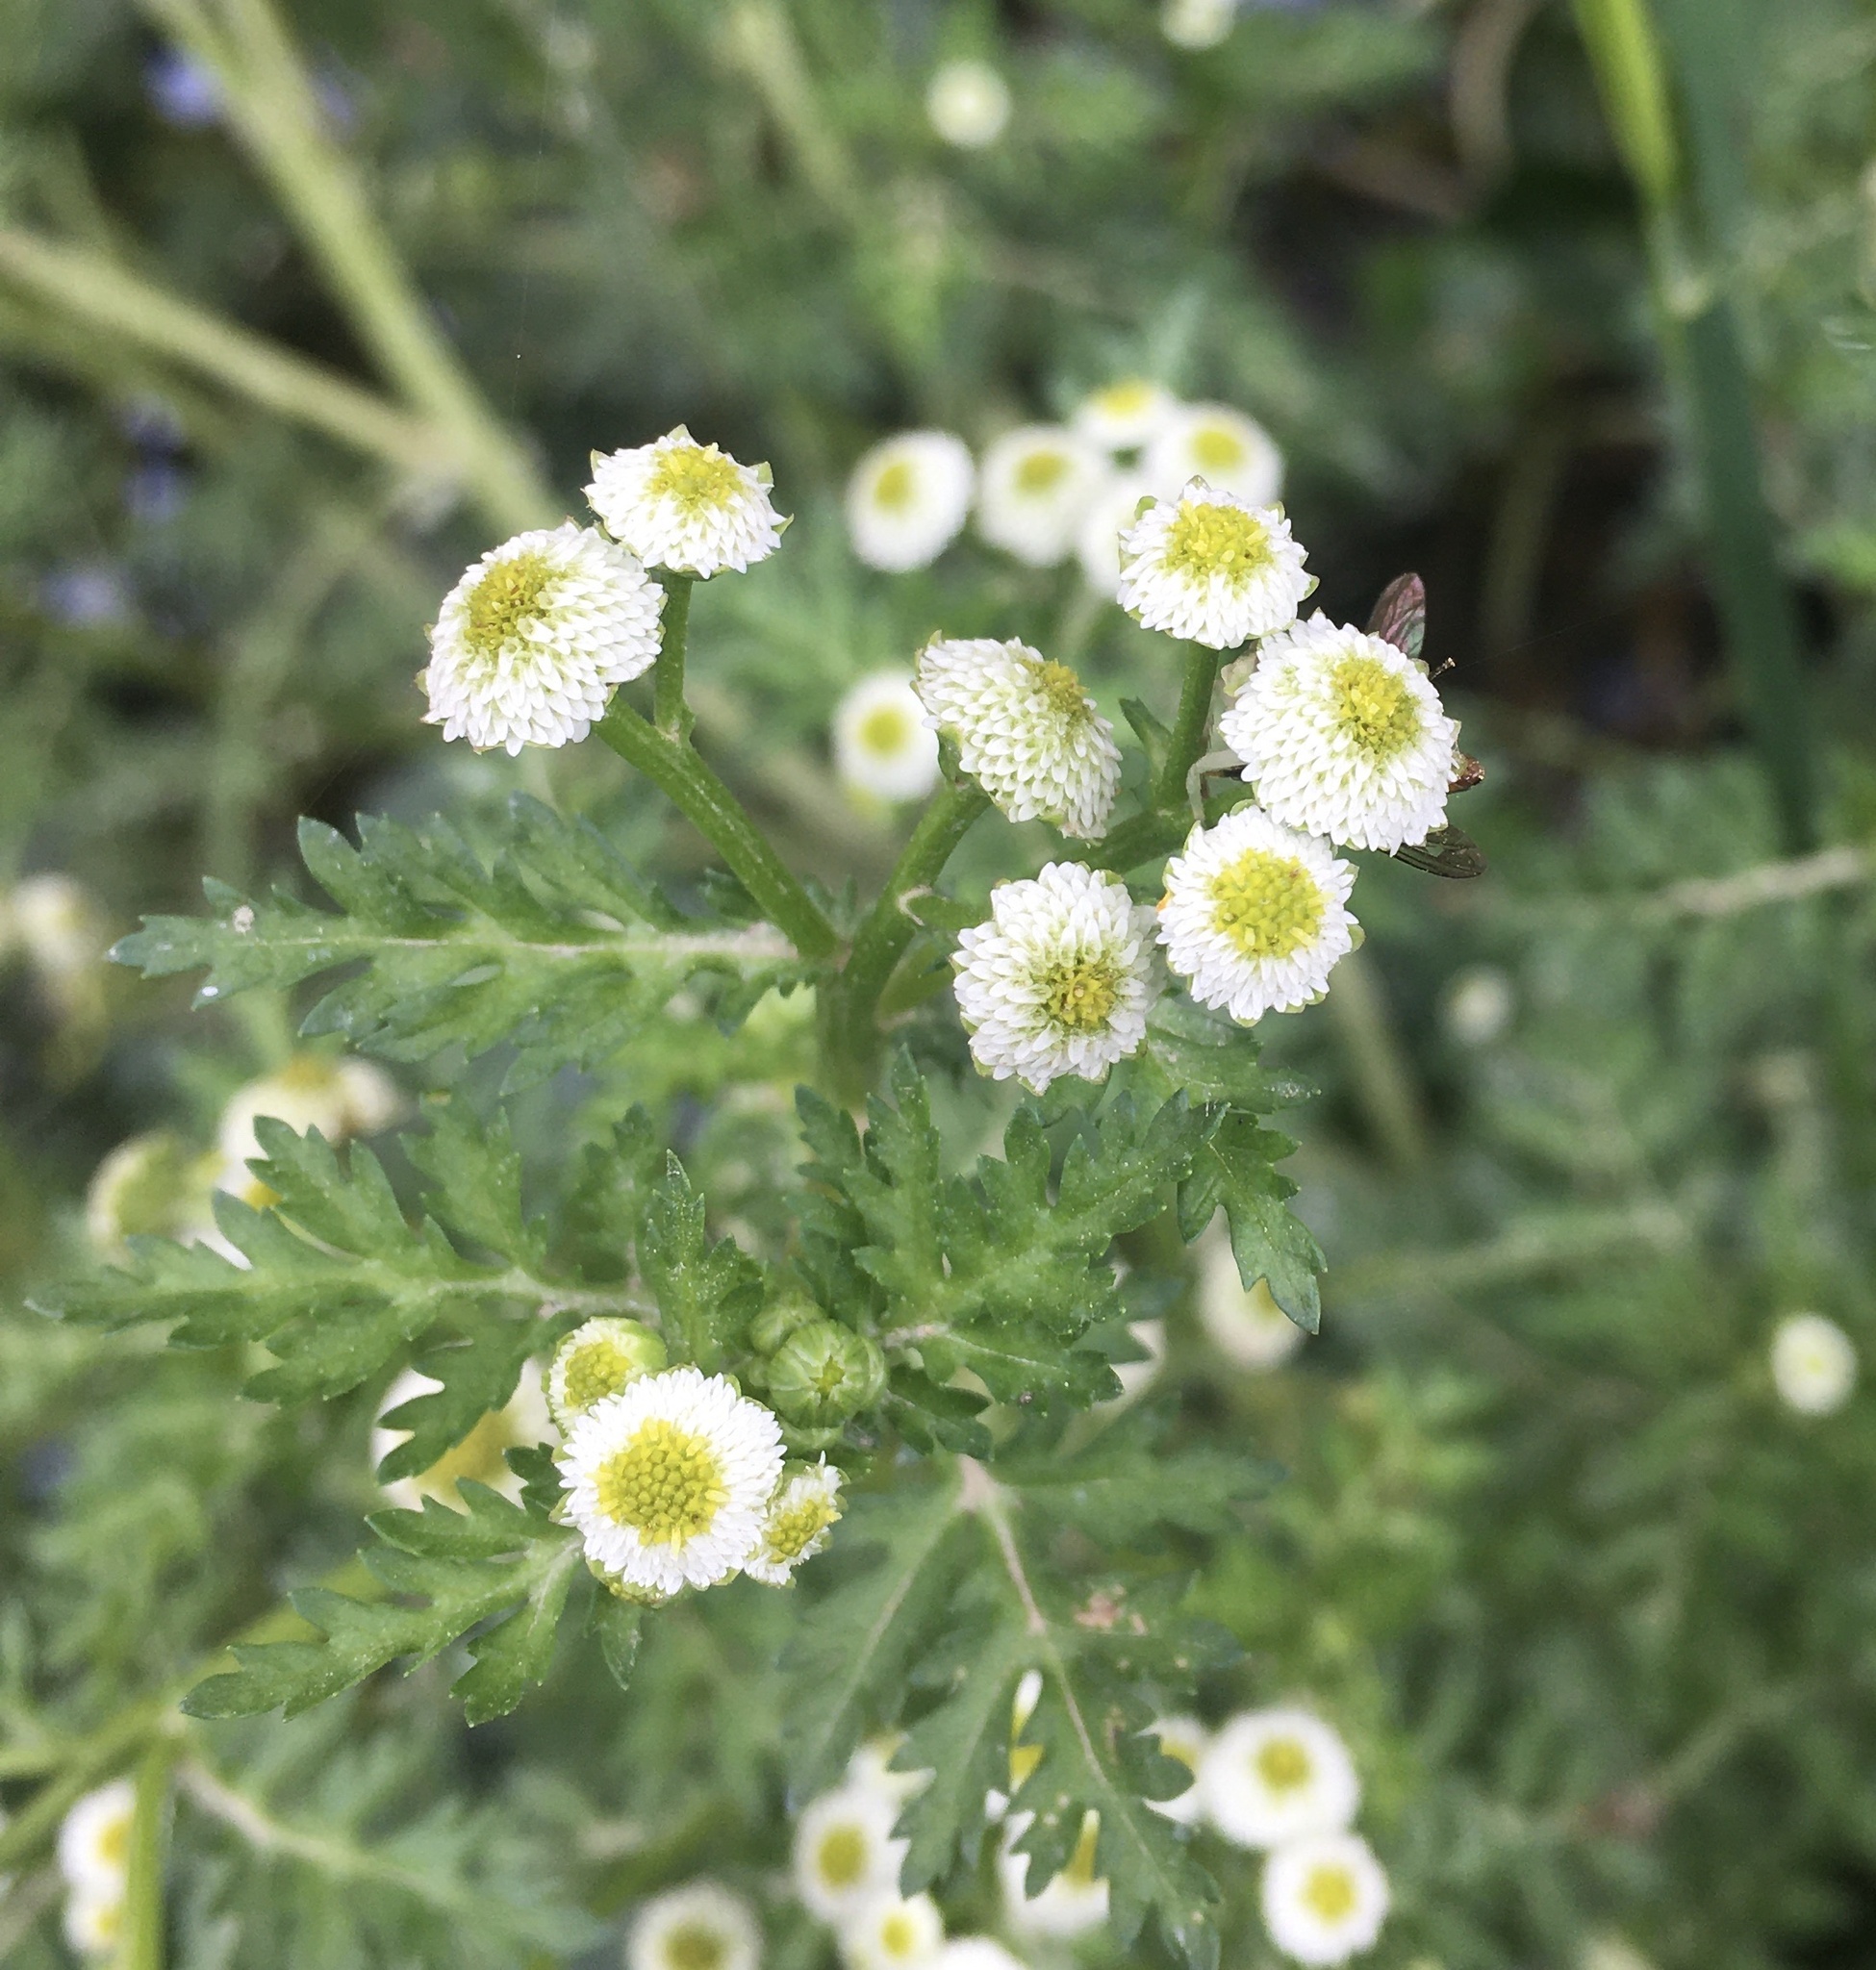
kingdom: Plantae
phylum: Tracheophyta
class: Magnoliopsida
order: Asterales
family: Asteraceae
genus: Plagiocheilus
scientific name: Plagiocheilus bogotensis
